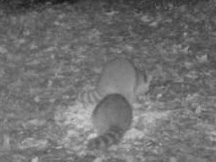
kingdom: Animalia
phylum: Chordata
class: Mammalia
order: Carnivora
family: Procyonidae
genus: Procyon
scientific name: Procyon lotor
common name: Raccoon
